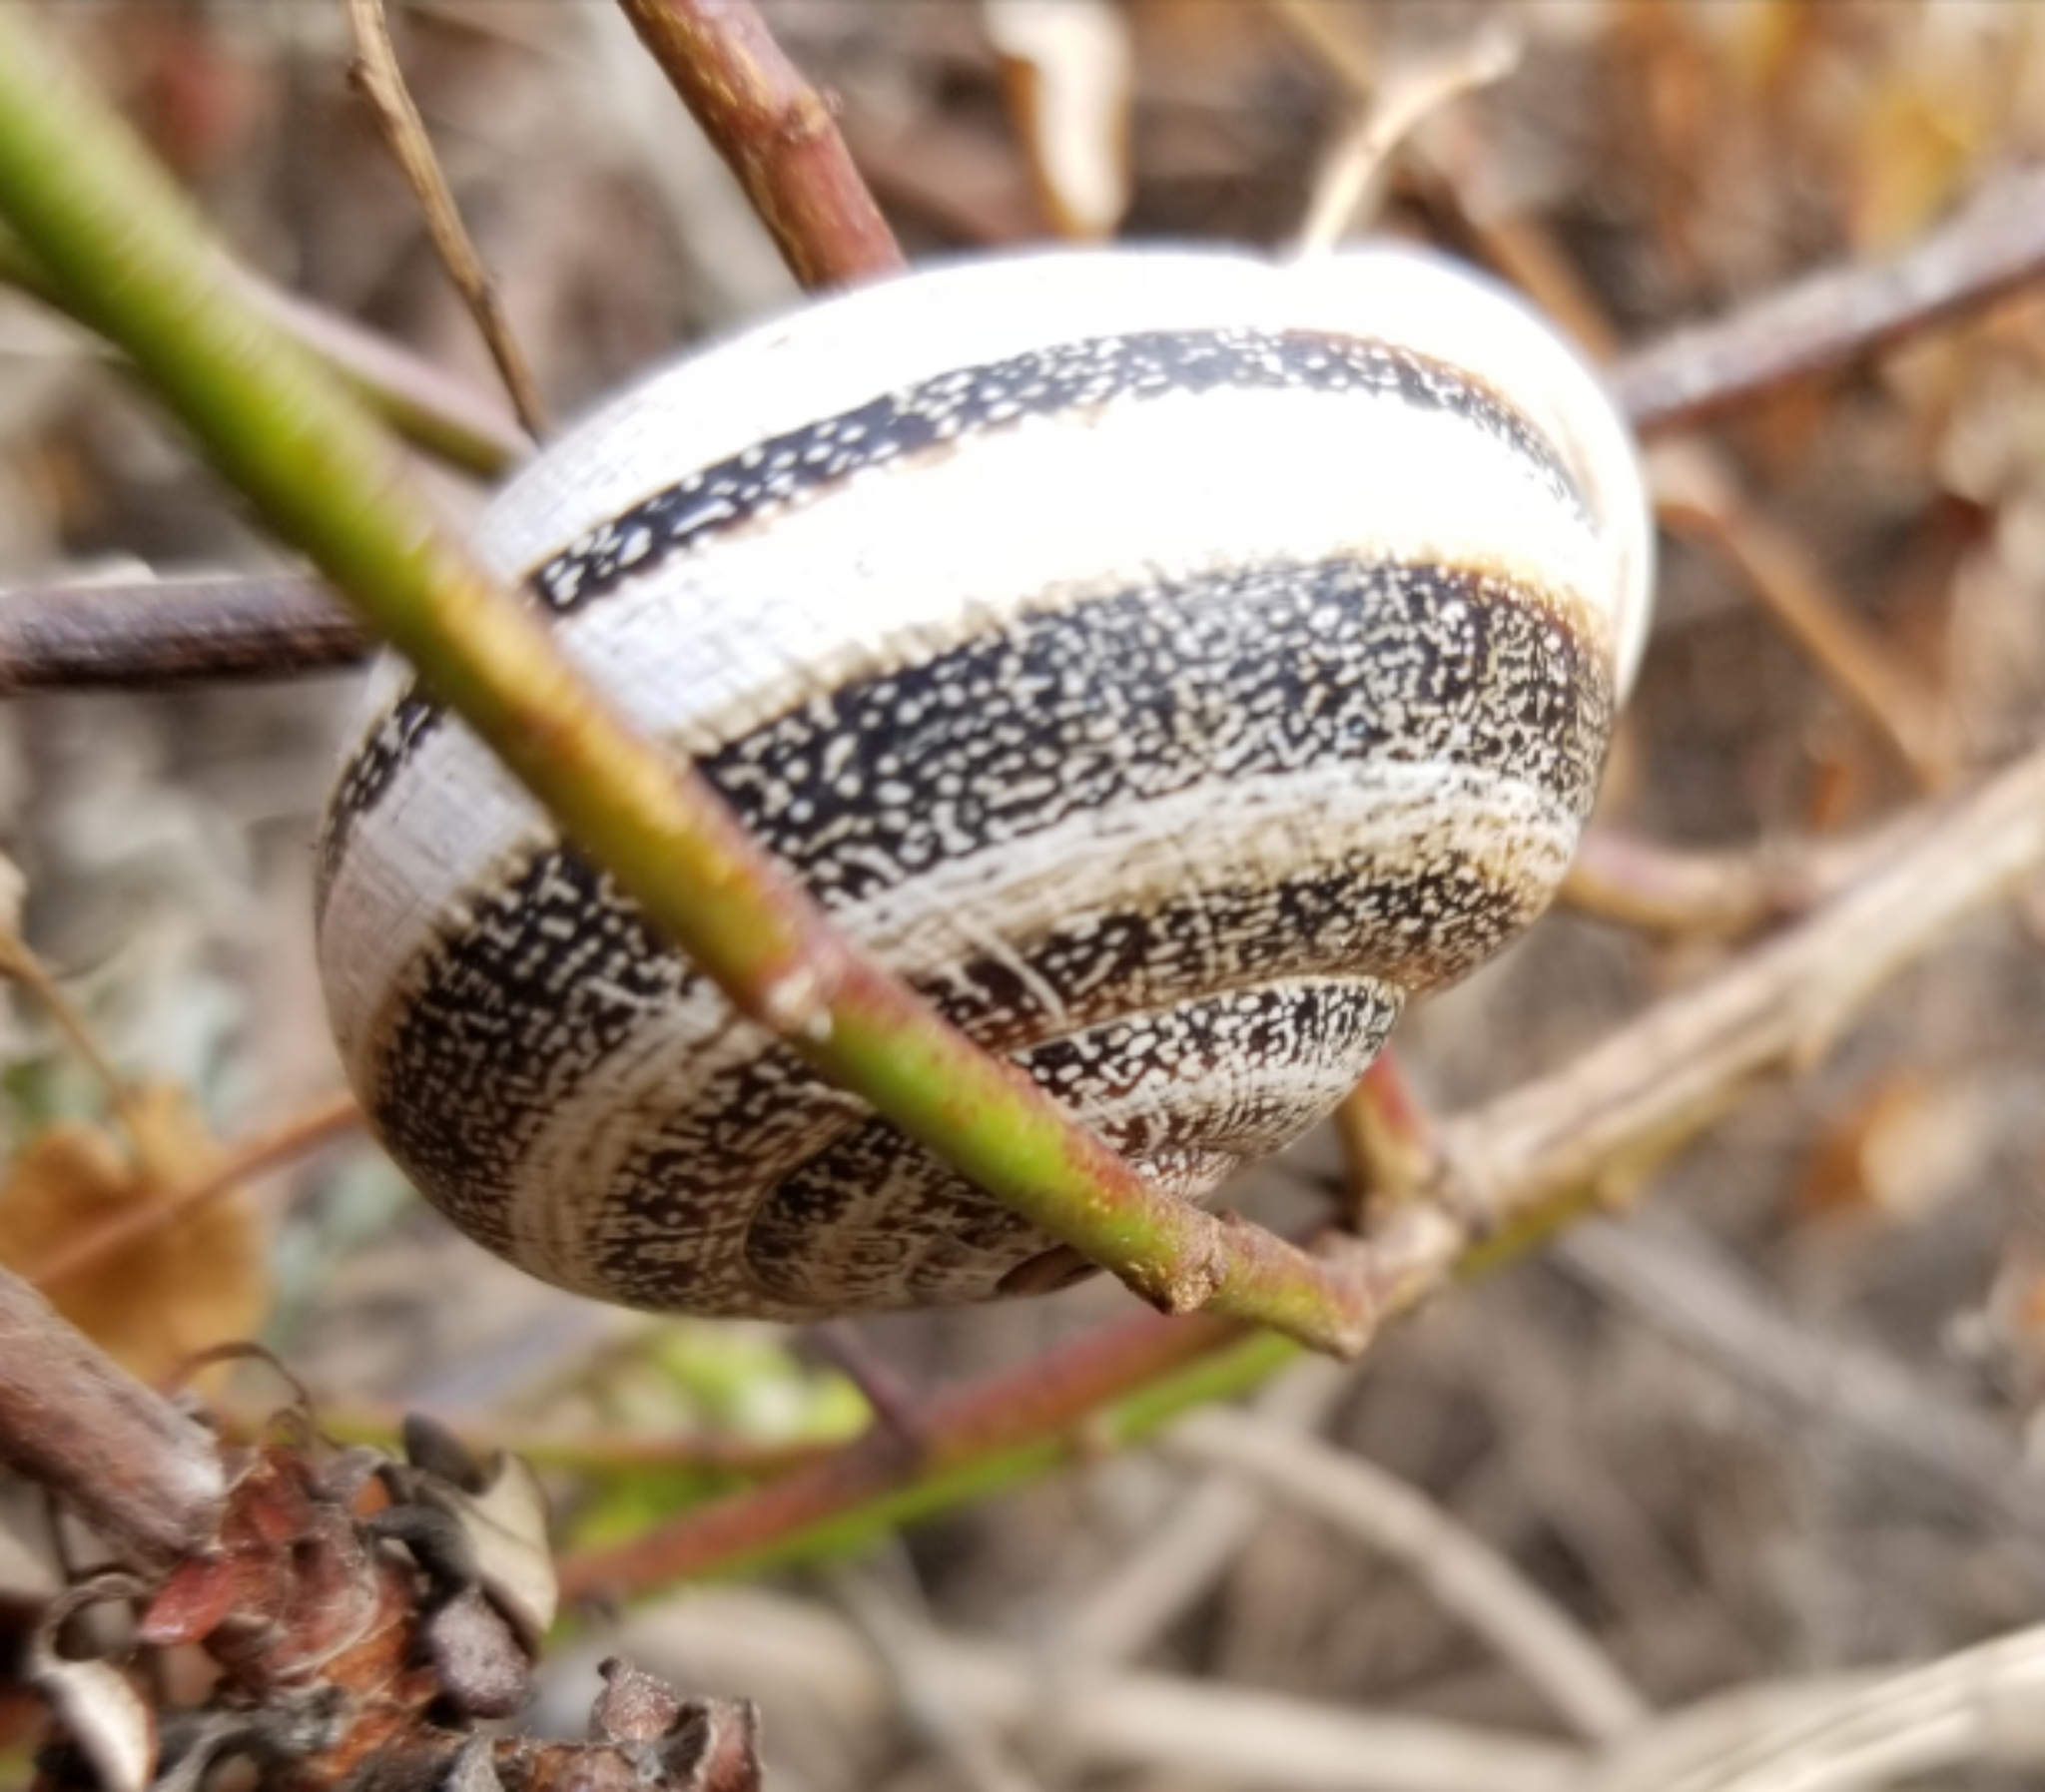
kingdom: Animalia
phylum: Mollusca
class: Gastropoda
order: Stylommatophora
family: Helicidae
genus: Otala
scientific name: Otala lactea
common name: Milk snail
